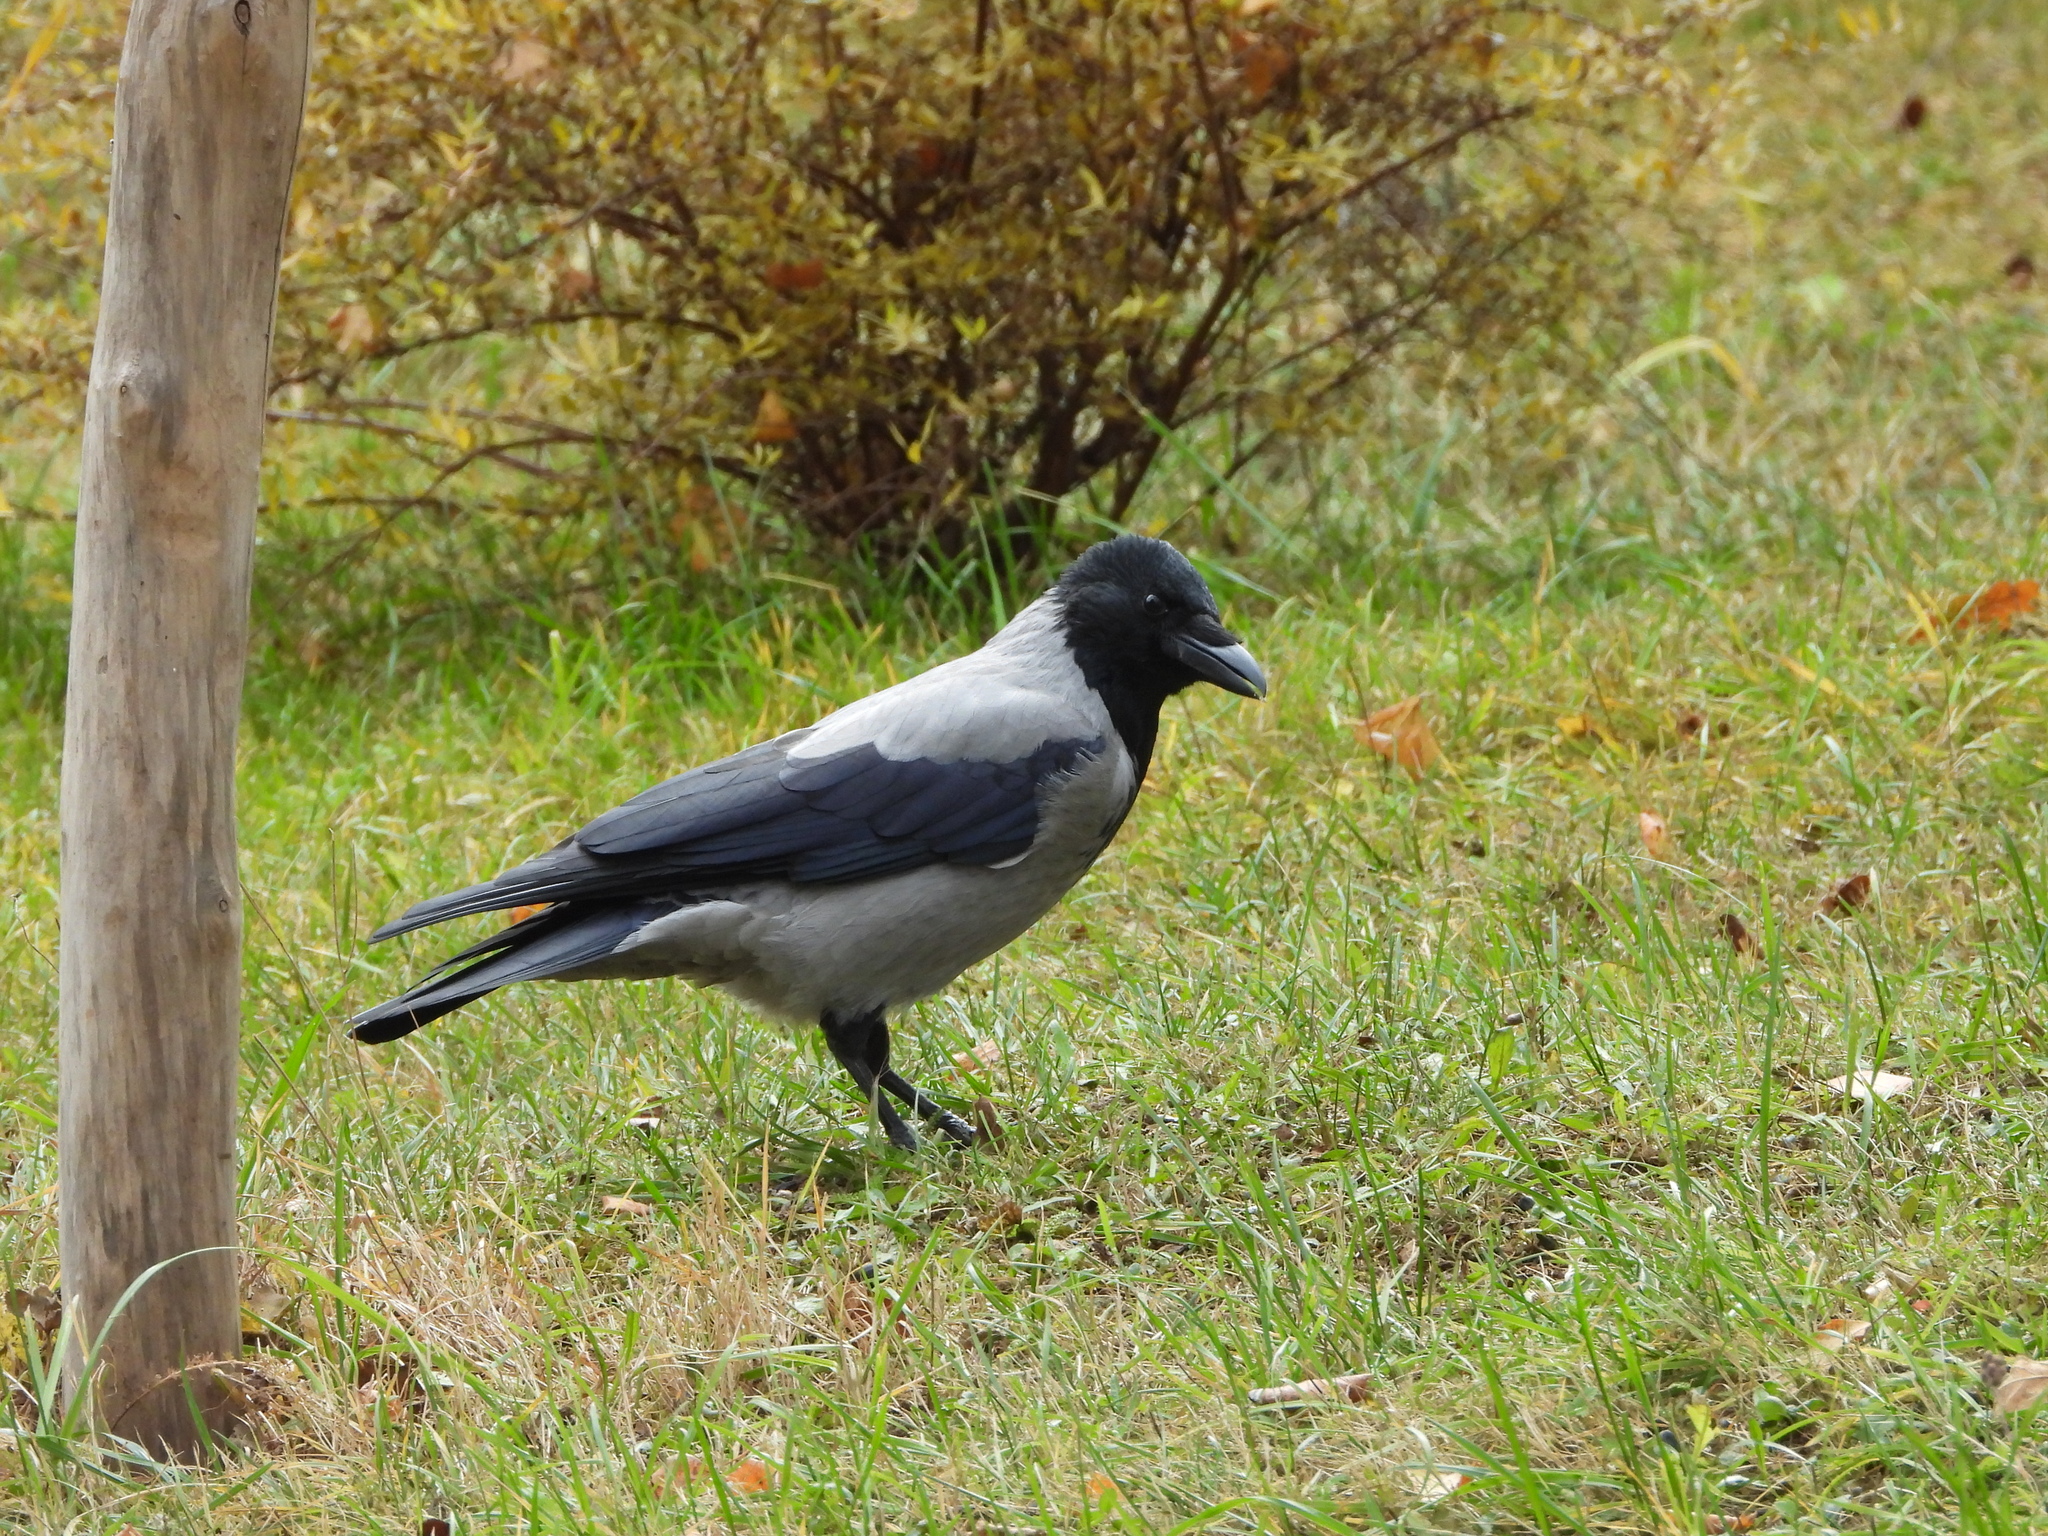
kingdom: Animalia
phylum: Chordata
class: Aves
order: Passeriformes
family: Corvidae
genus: Corvus
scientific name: Corvus cornix
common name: Hooded crow
